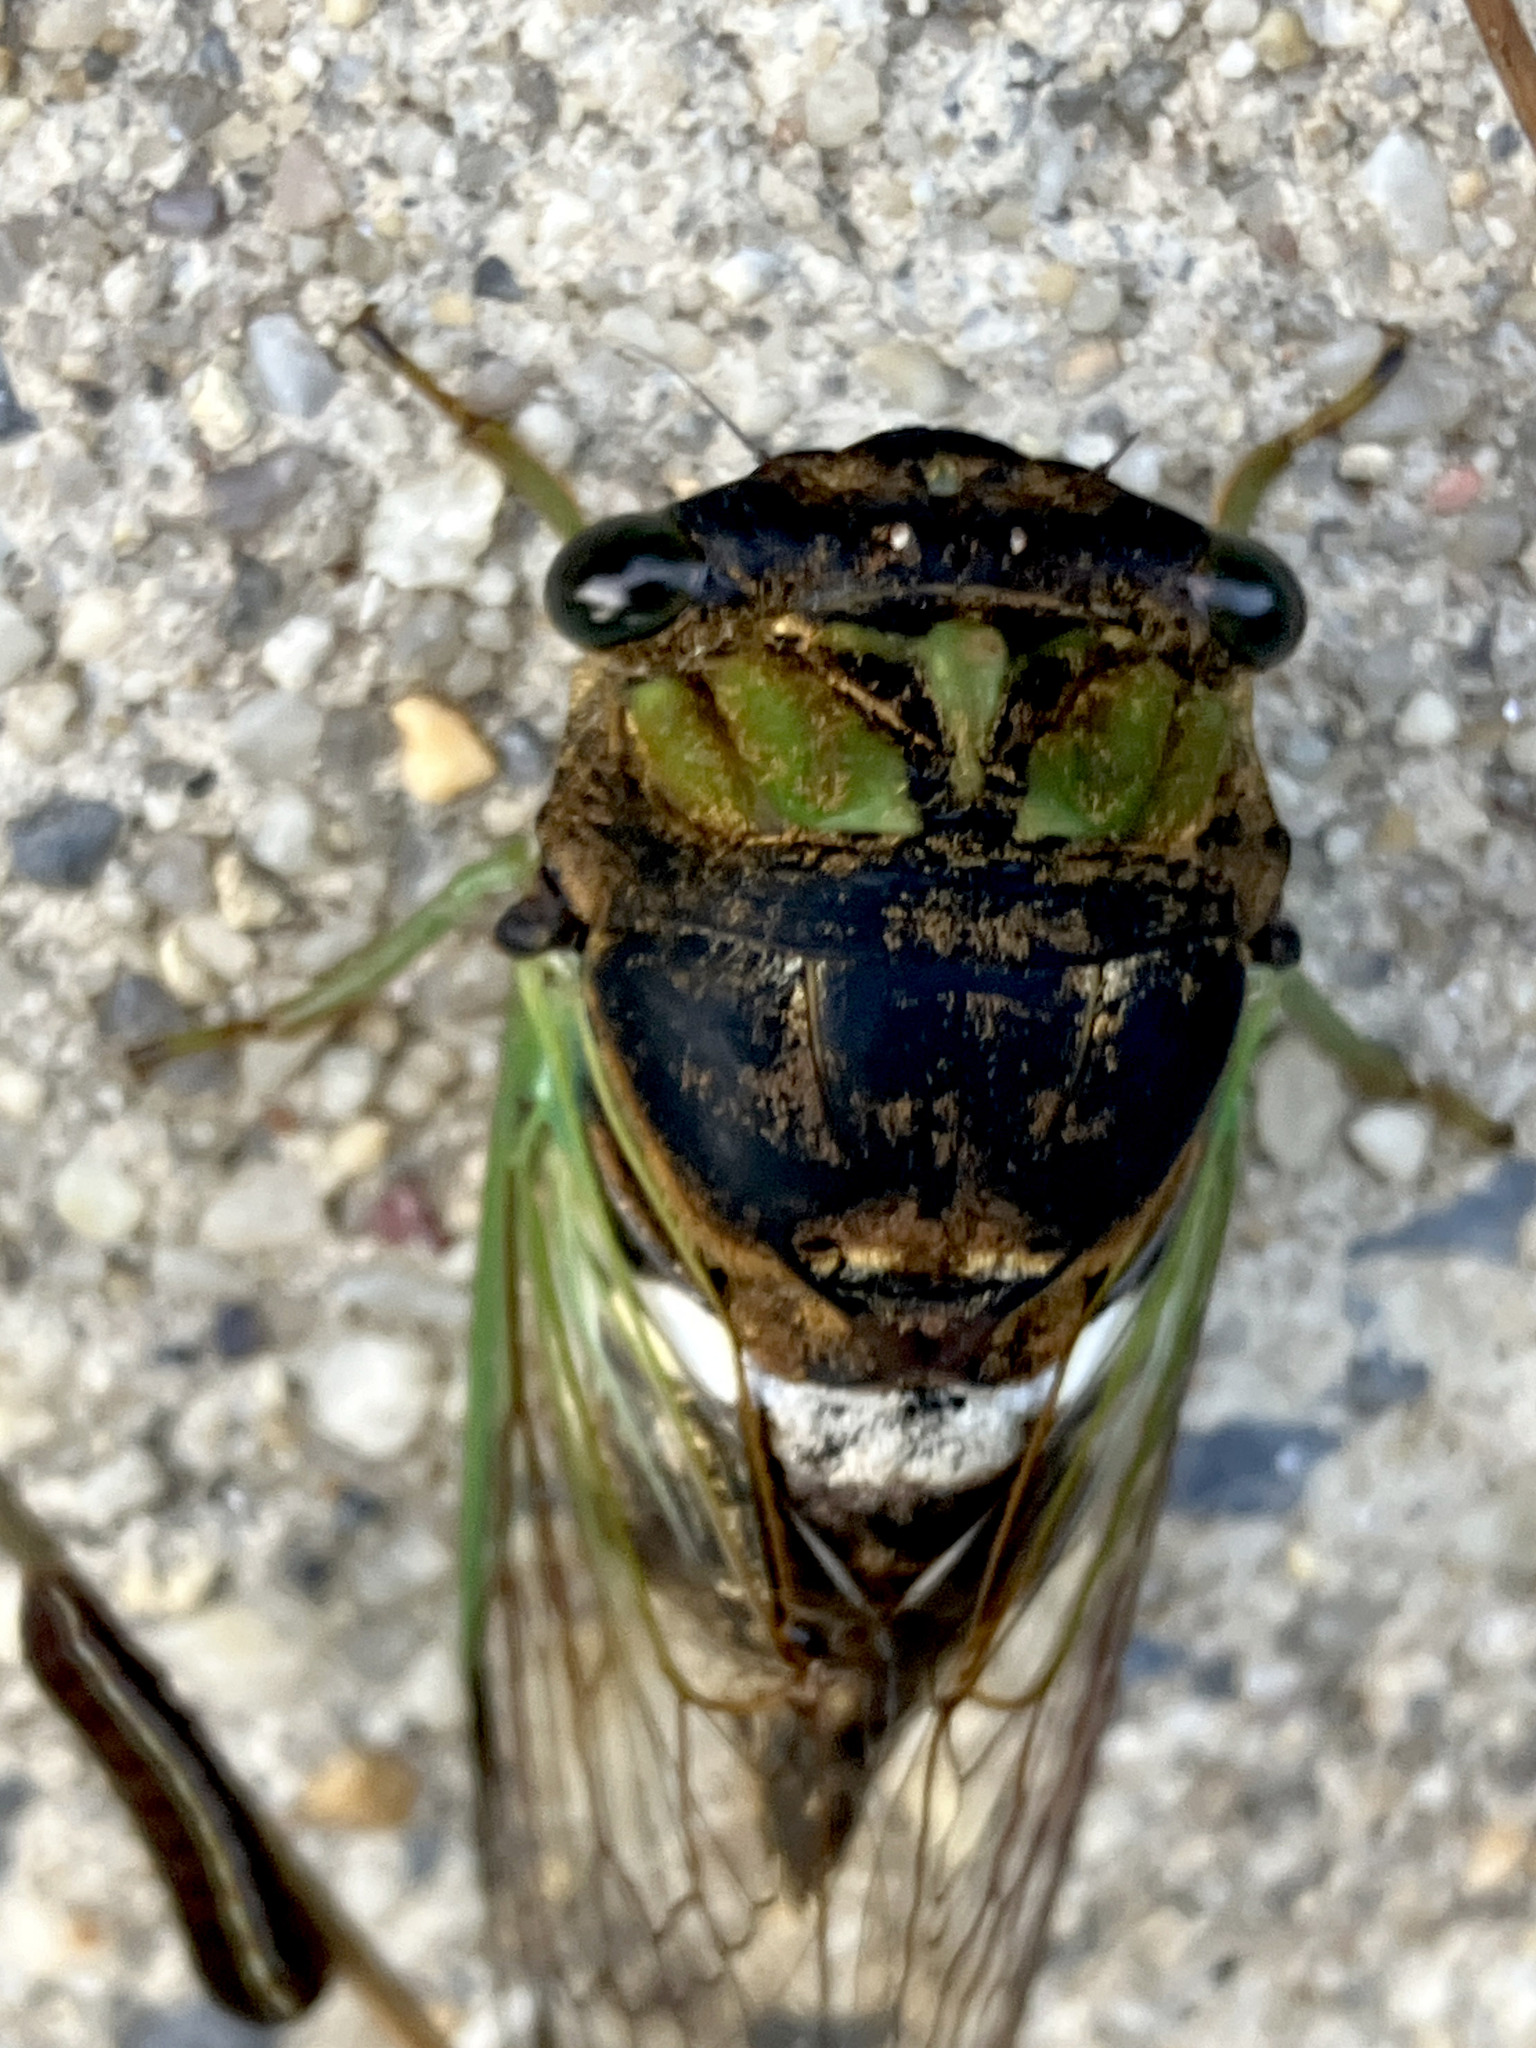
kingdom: Animalia
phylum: Arthropoda
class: Insecta
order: Hemiptera
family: Cicadidae
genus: Neotibicen
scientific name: Neotibicen tibicen
